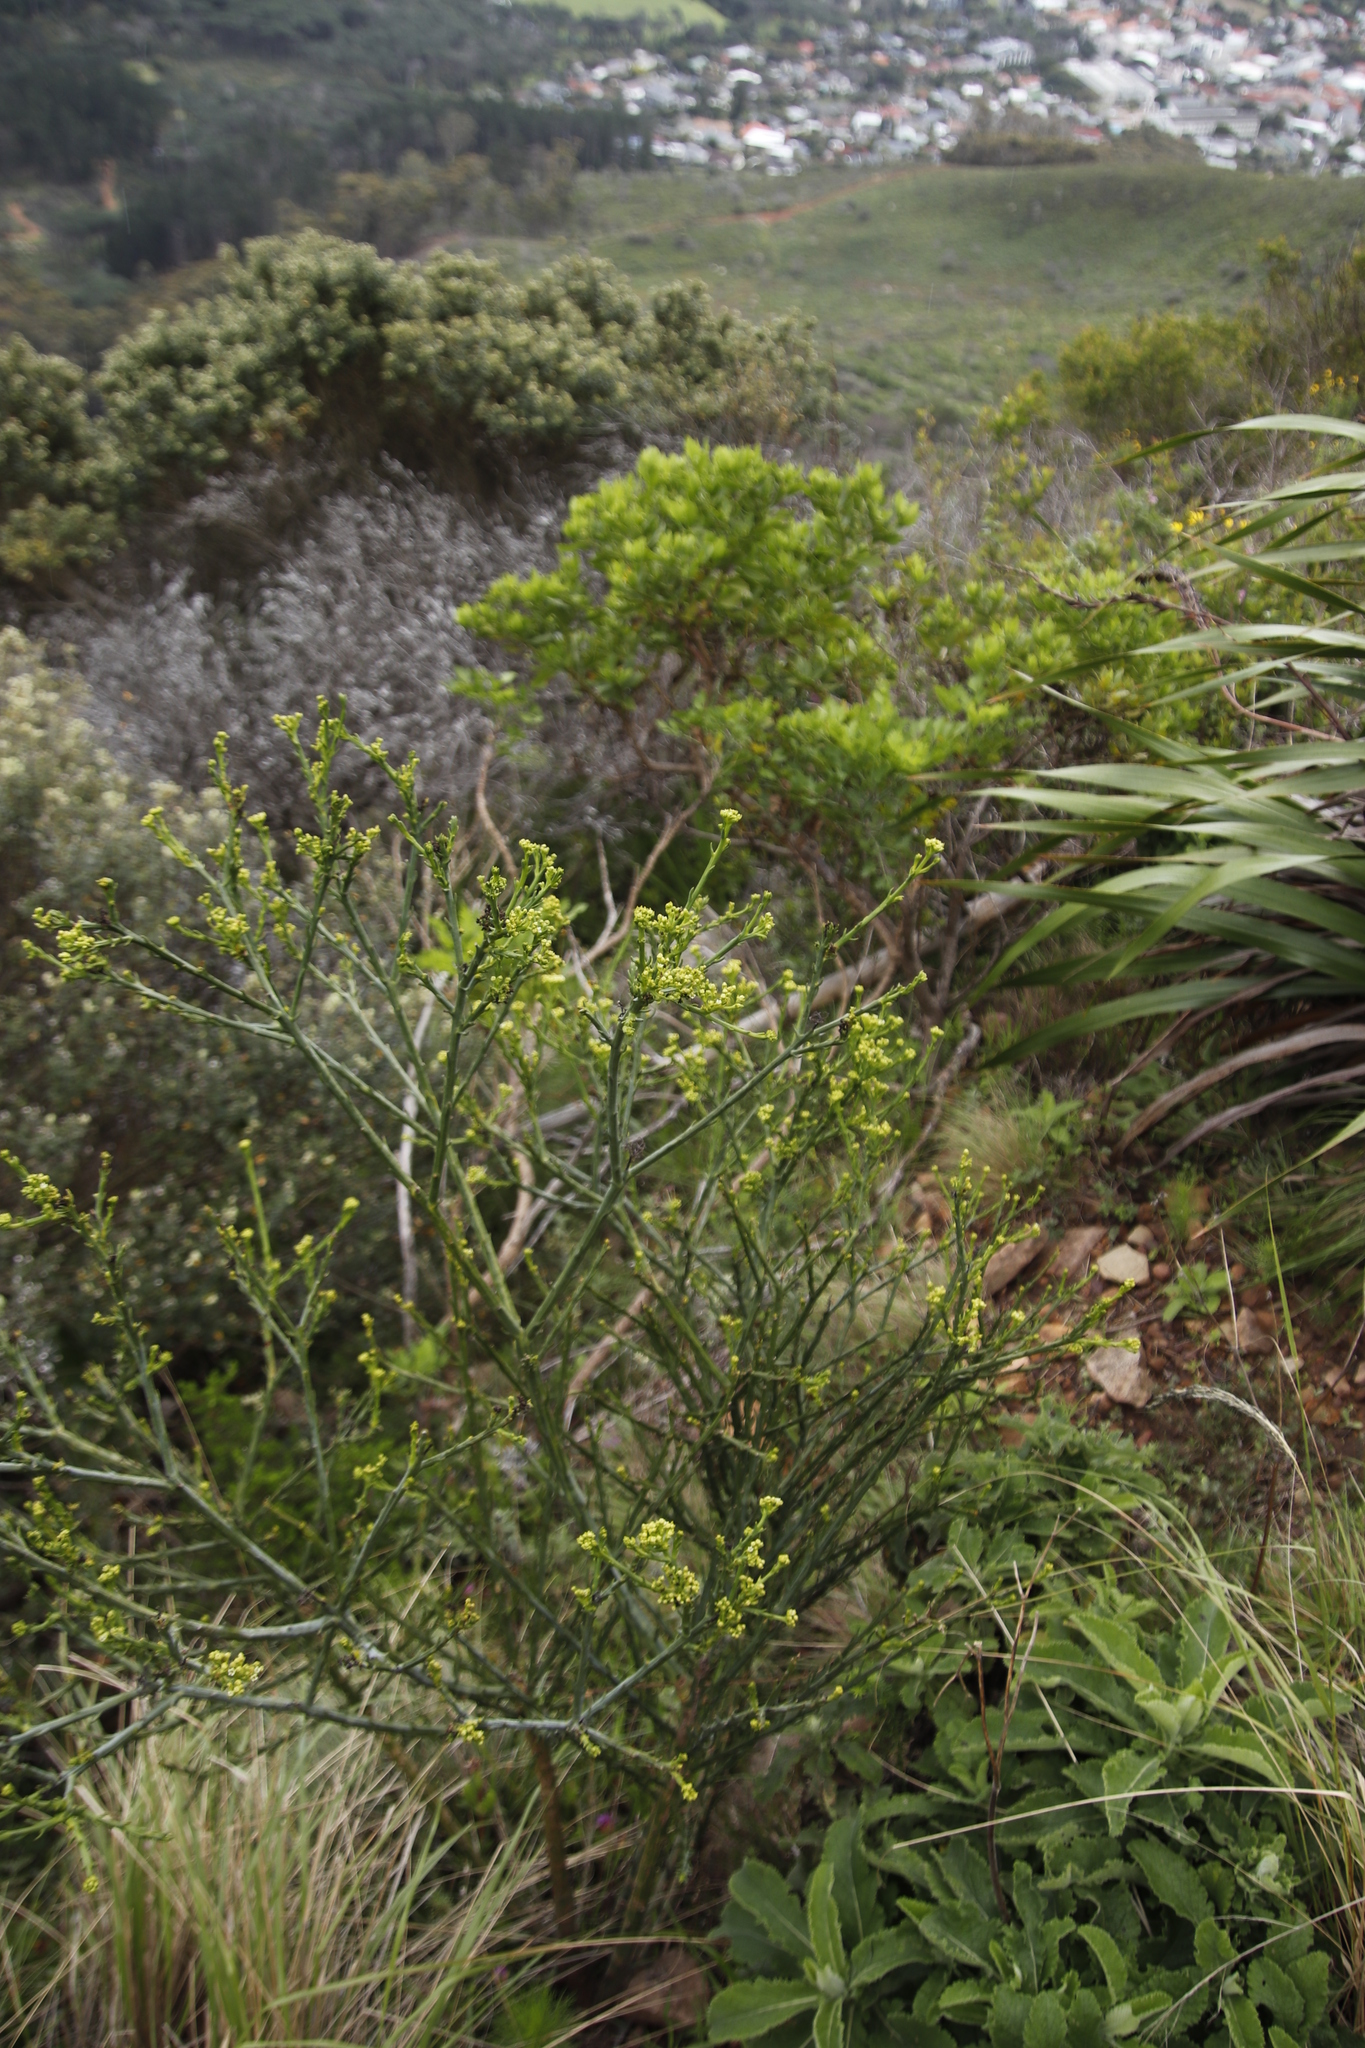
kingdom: Plantae
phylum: Tracheophyta
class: Magnoliopsida
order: Santalales
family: Thesiaceae
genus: Thesium
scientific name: Thesium strictum
